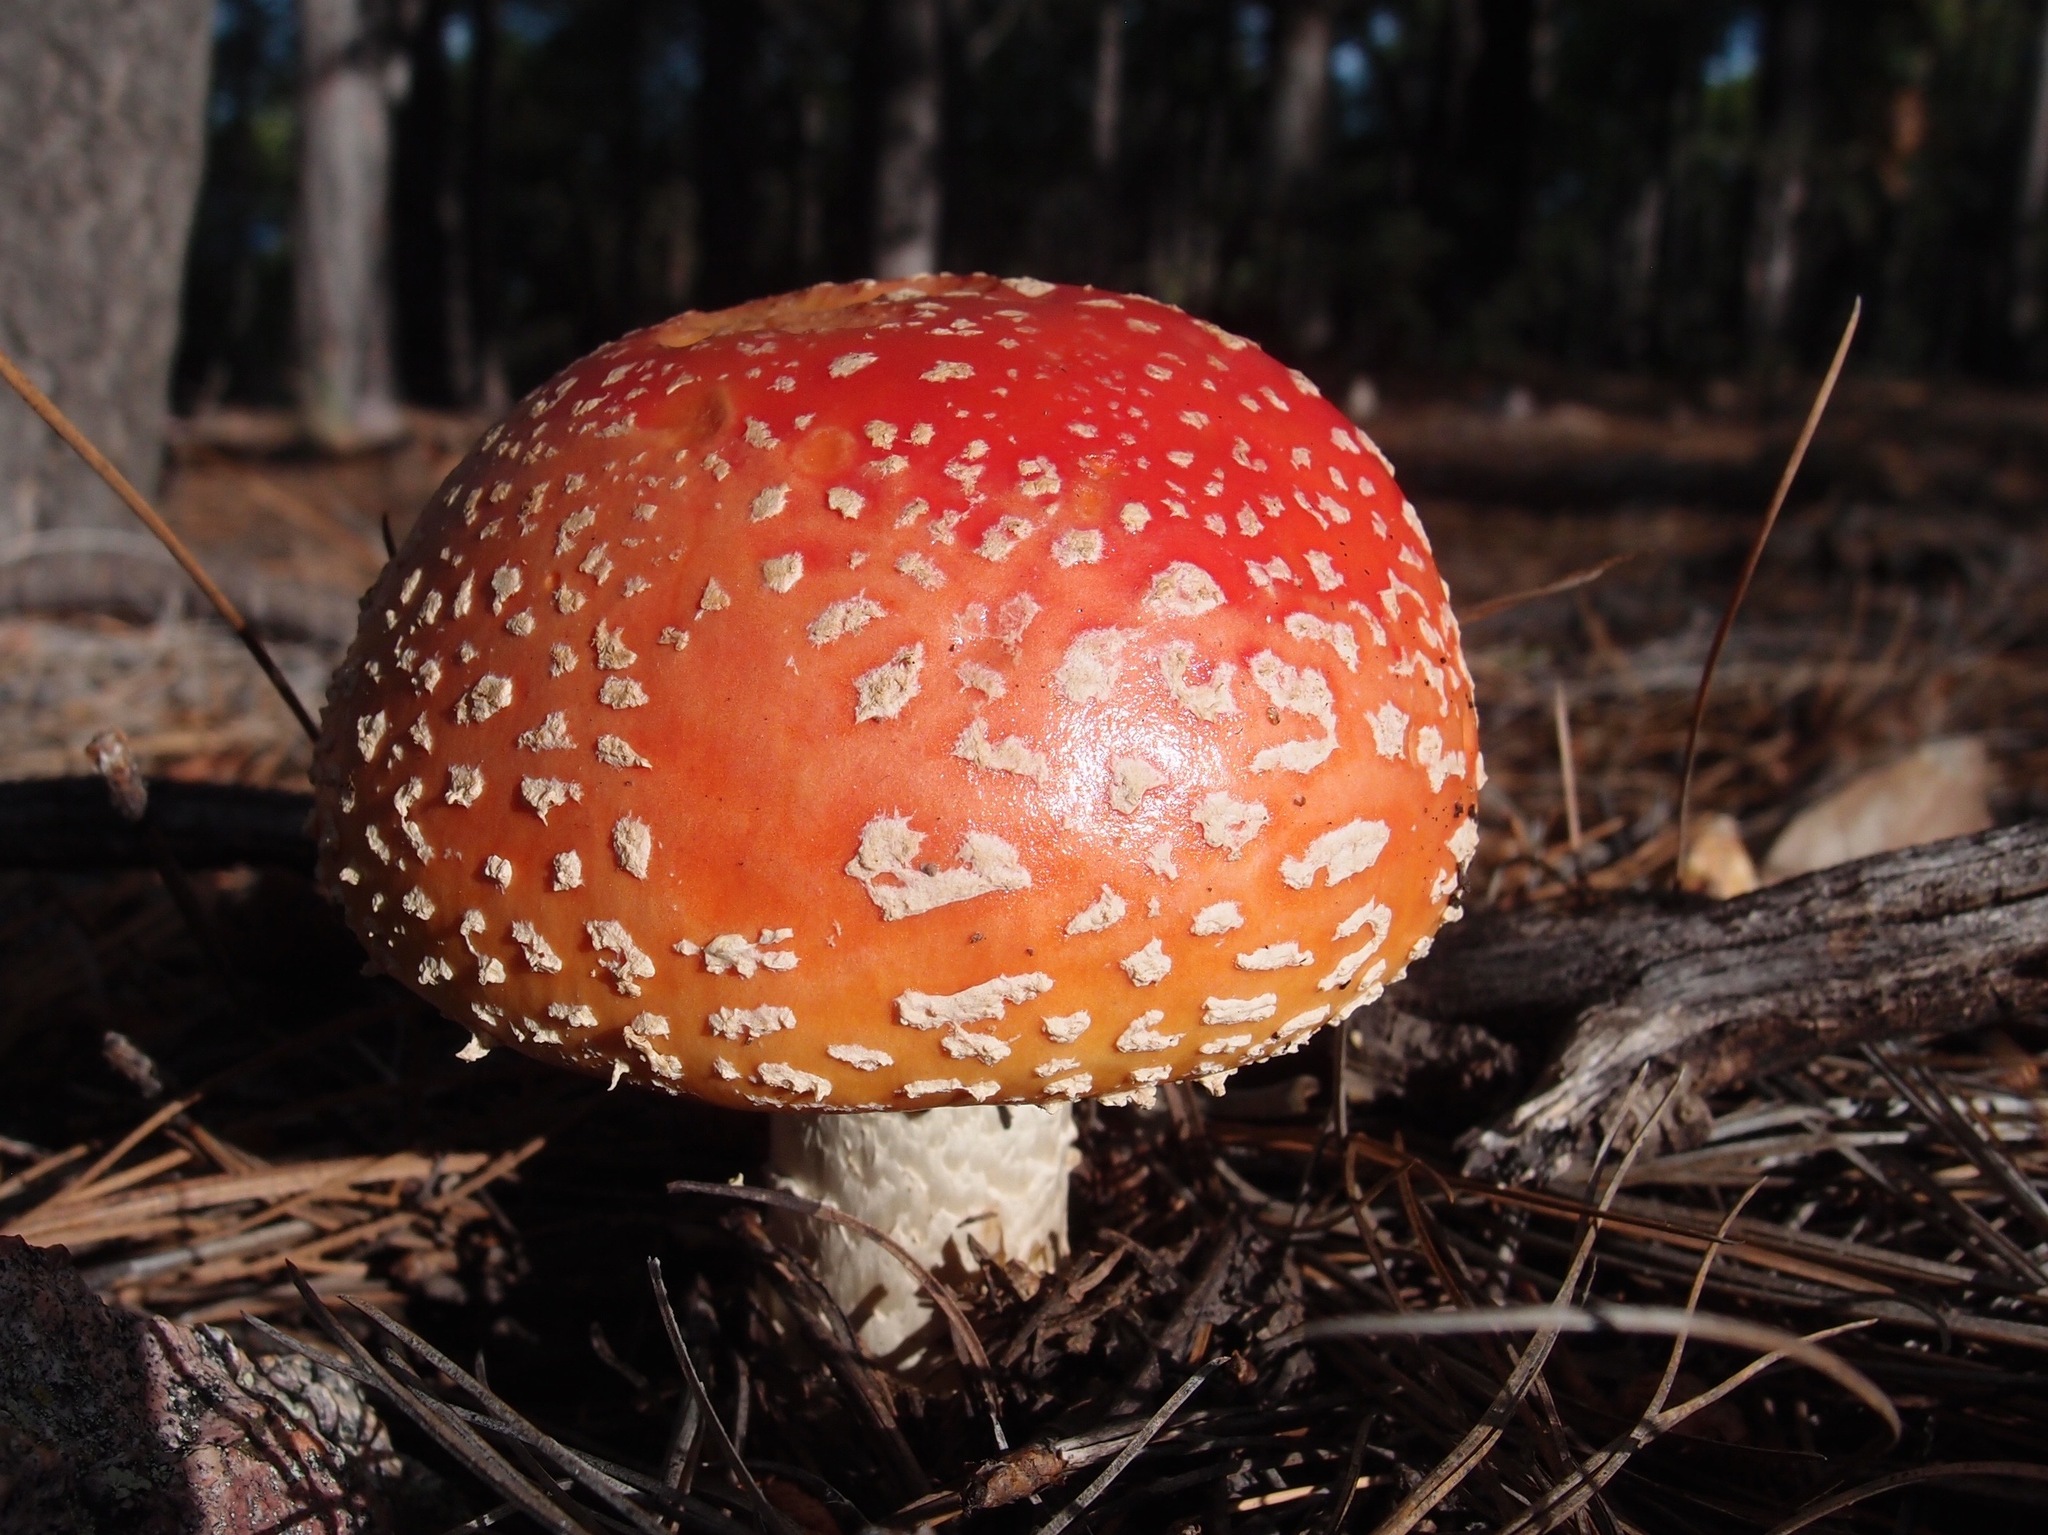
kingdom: Fungi
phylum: Basidiomycota
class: Agaricomycetes
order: Agaricales
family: Amanitaceae
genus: Amanita
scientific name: Amanita muscaria
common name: Fly agaric
